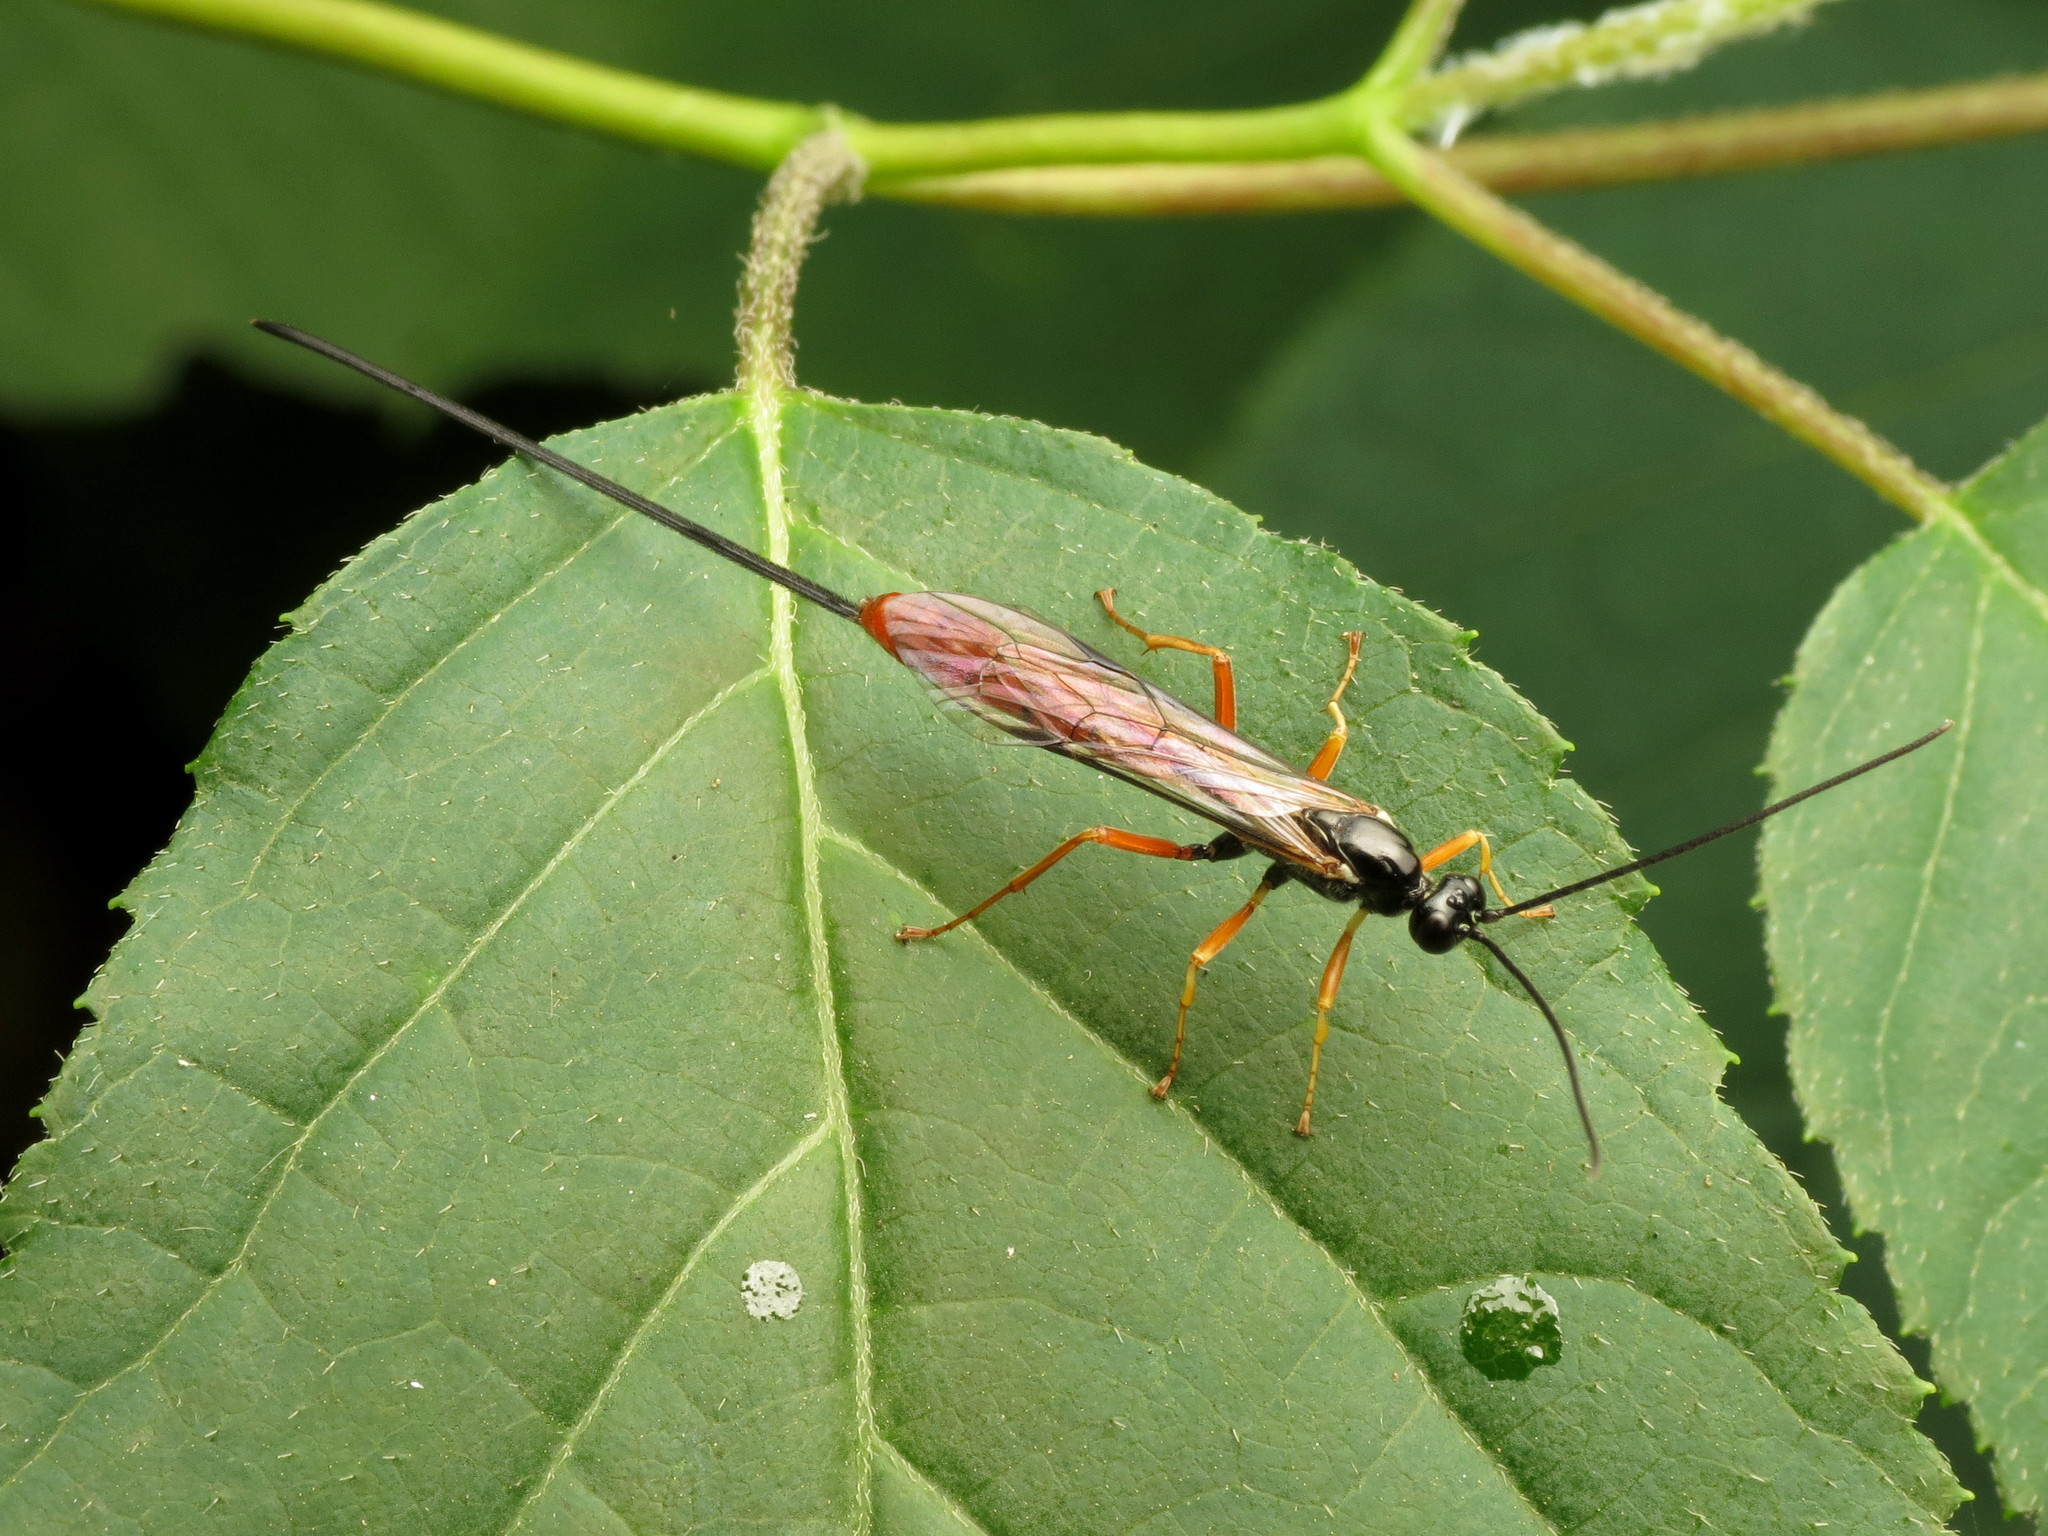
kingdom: Animalia
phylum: Arthropoda
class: Insecta
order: Hymenoptera
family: Ichneumonidae
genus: Dolichomitus
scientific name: Dolichomitus irritator
